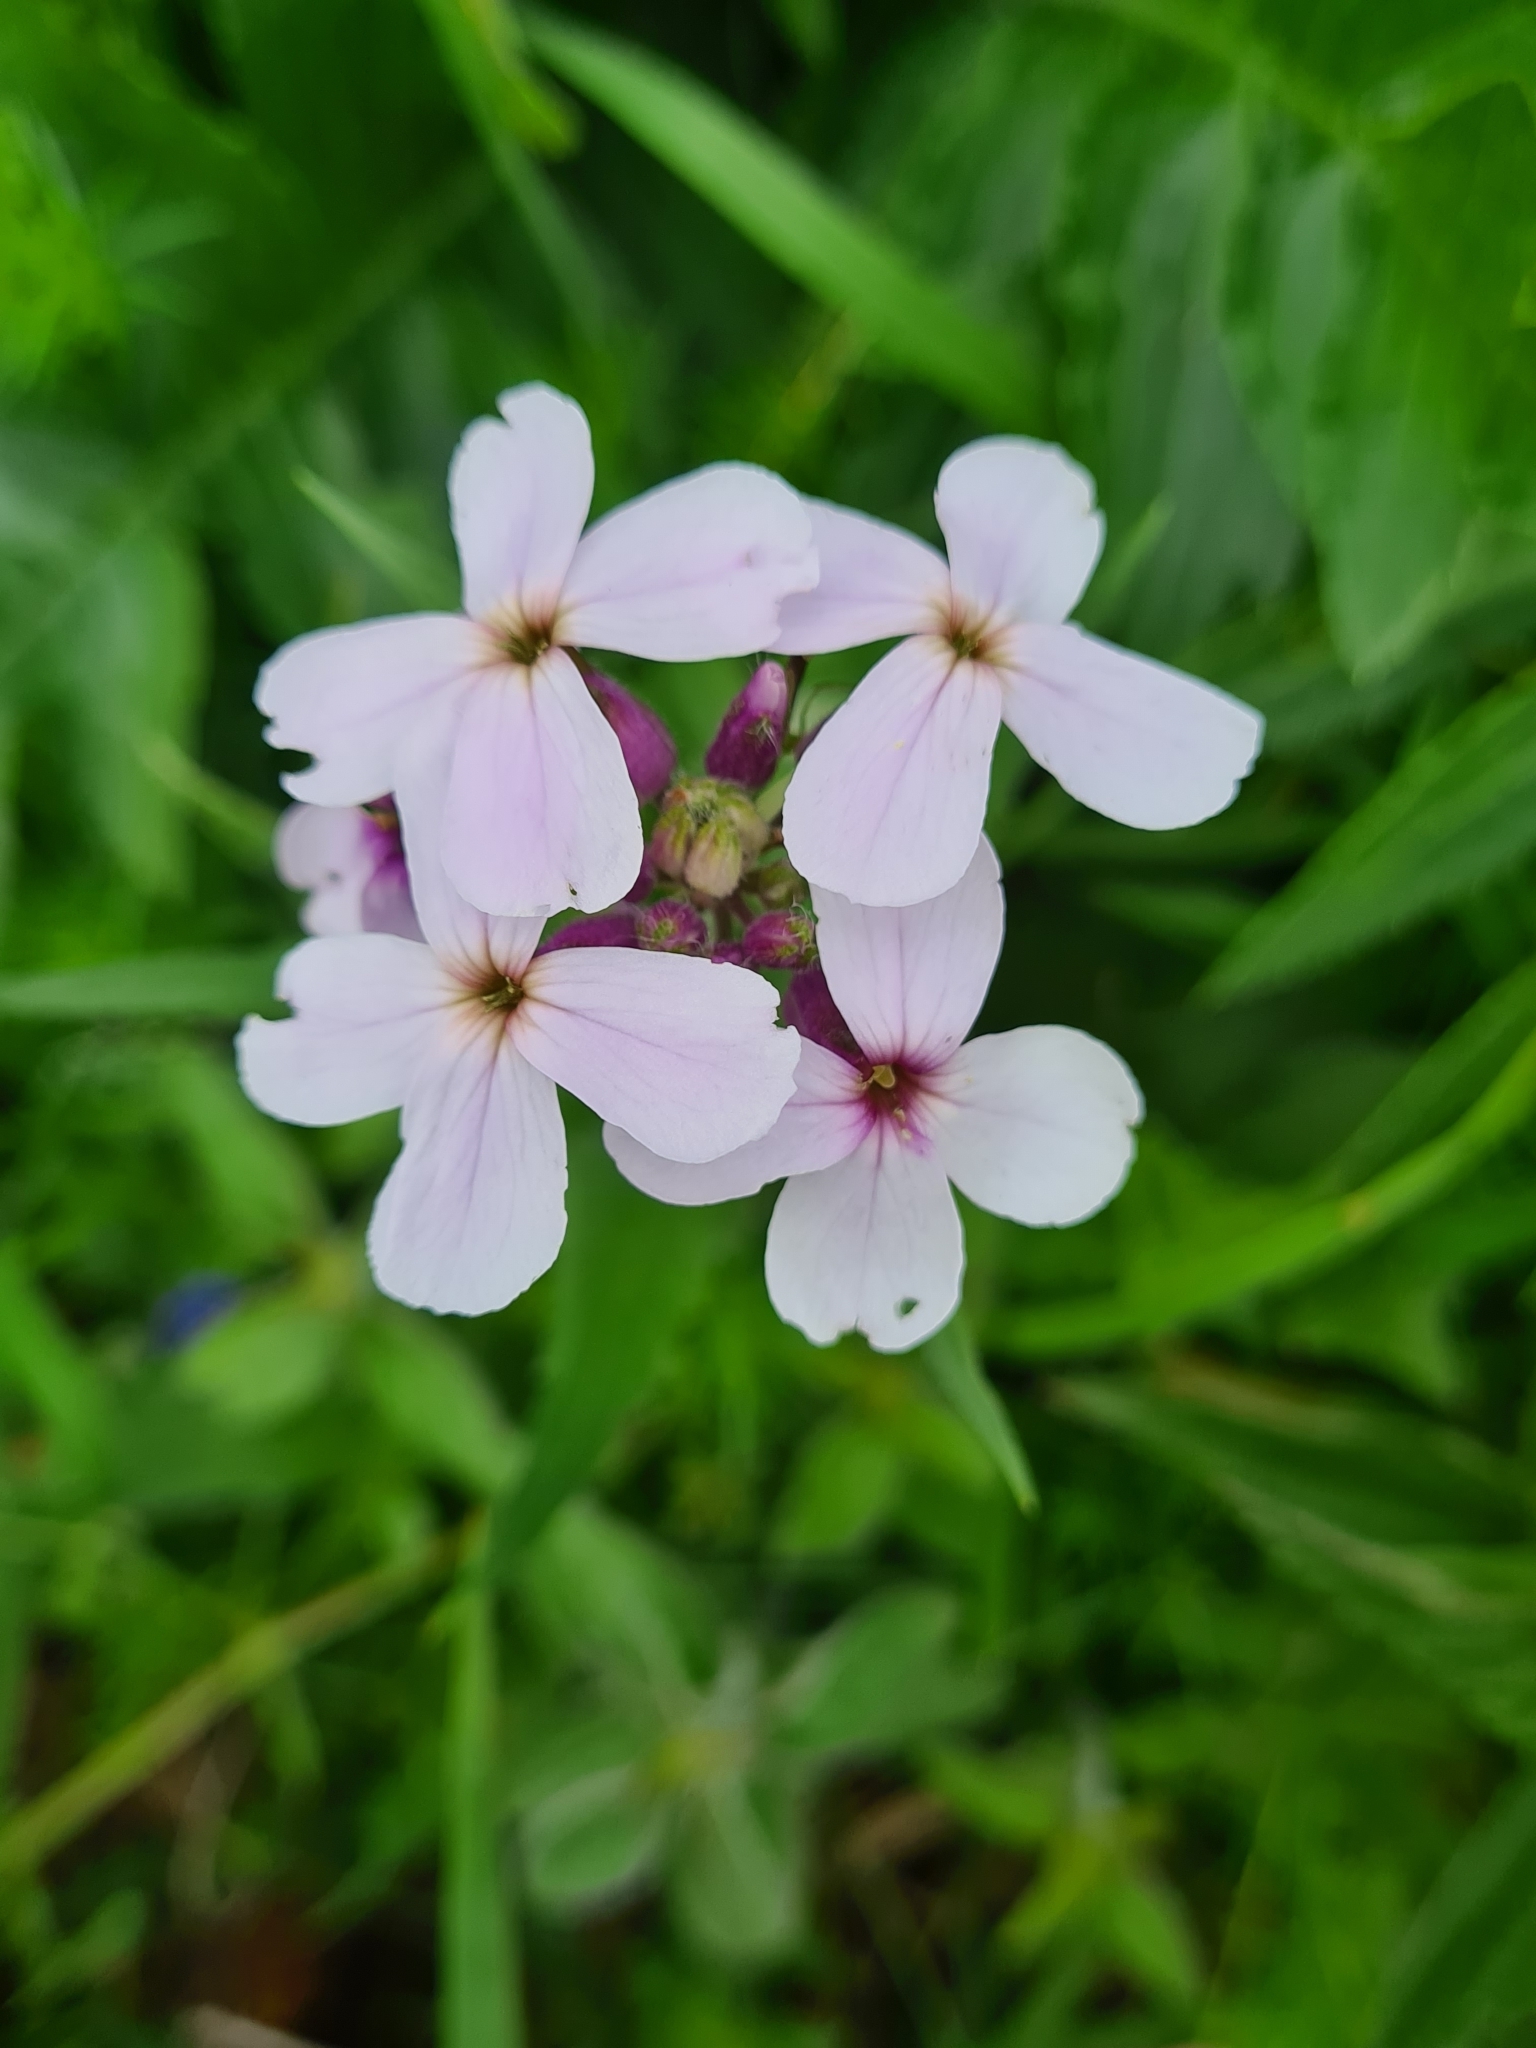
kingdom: Plantae
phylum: Tracheophyta
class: Magnoliopsida
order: Brassicales
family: Brassicaceae
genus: Hesperis
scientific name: Hesperis matronalis
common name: Dame's-violet
